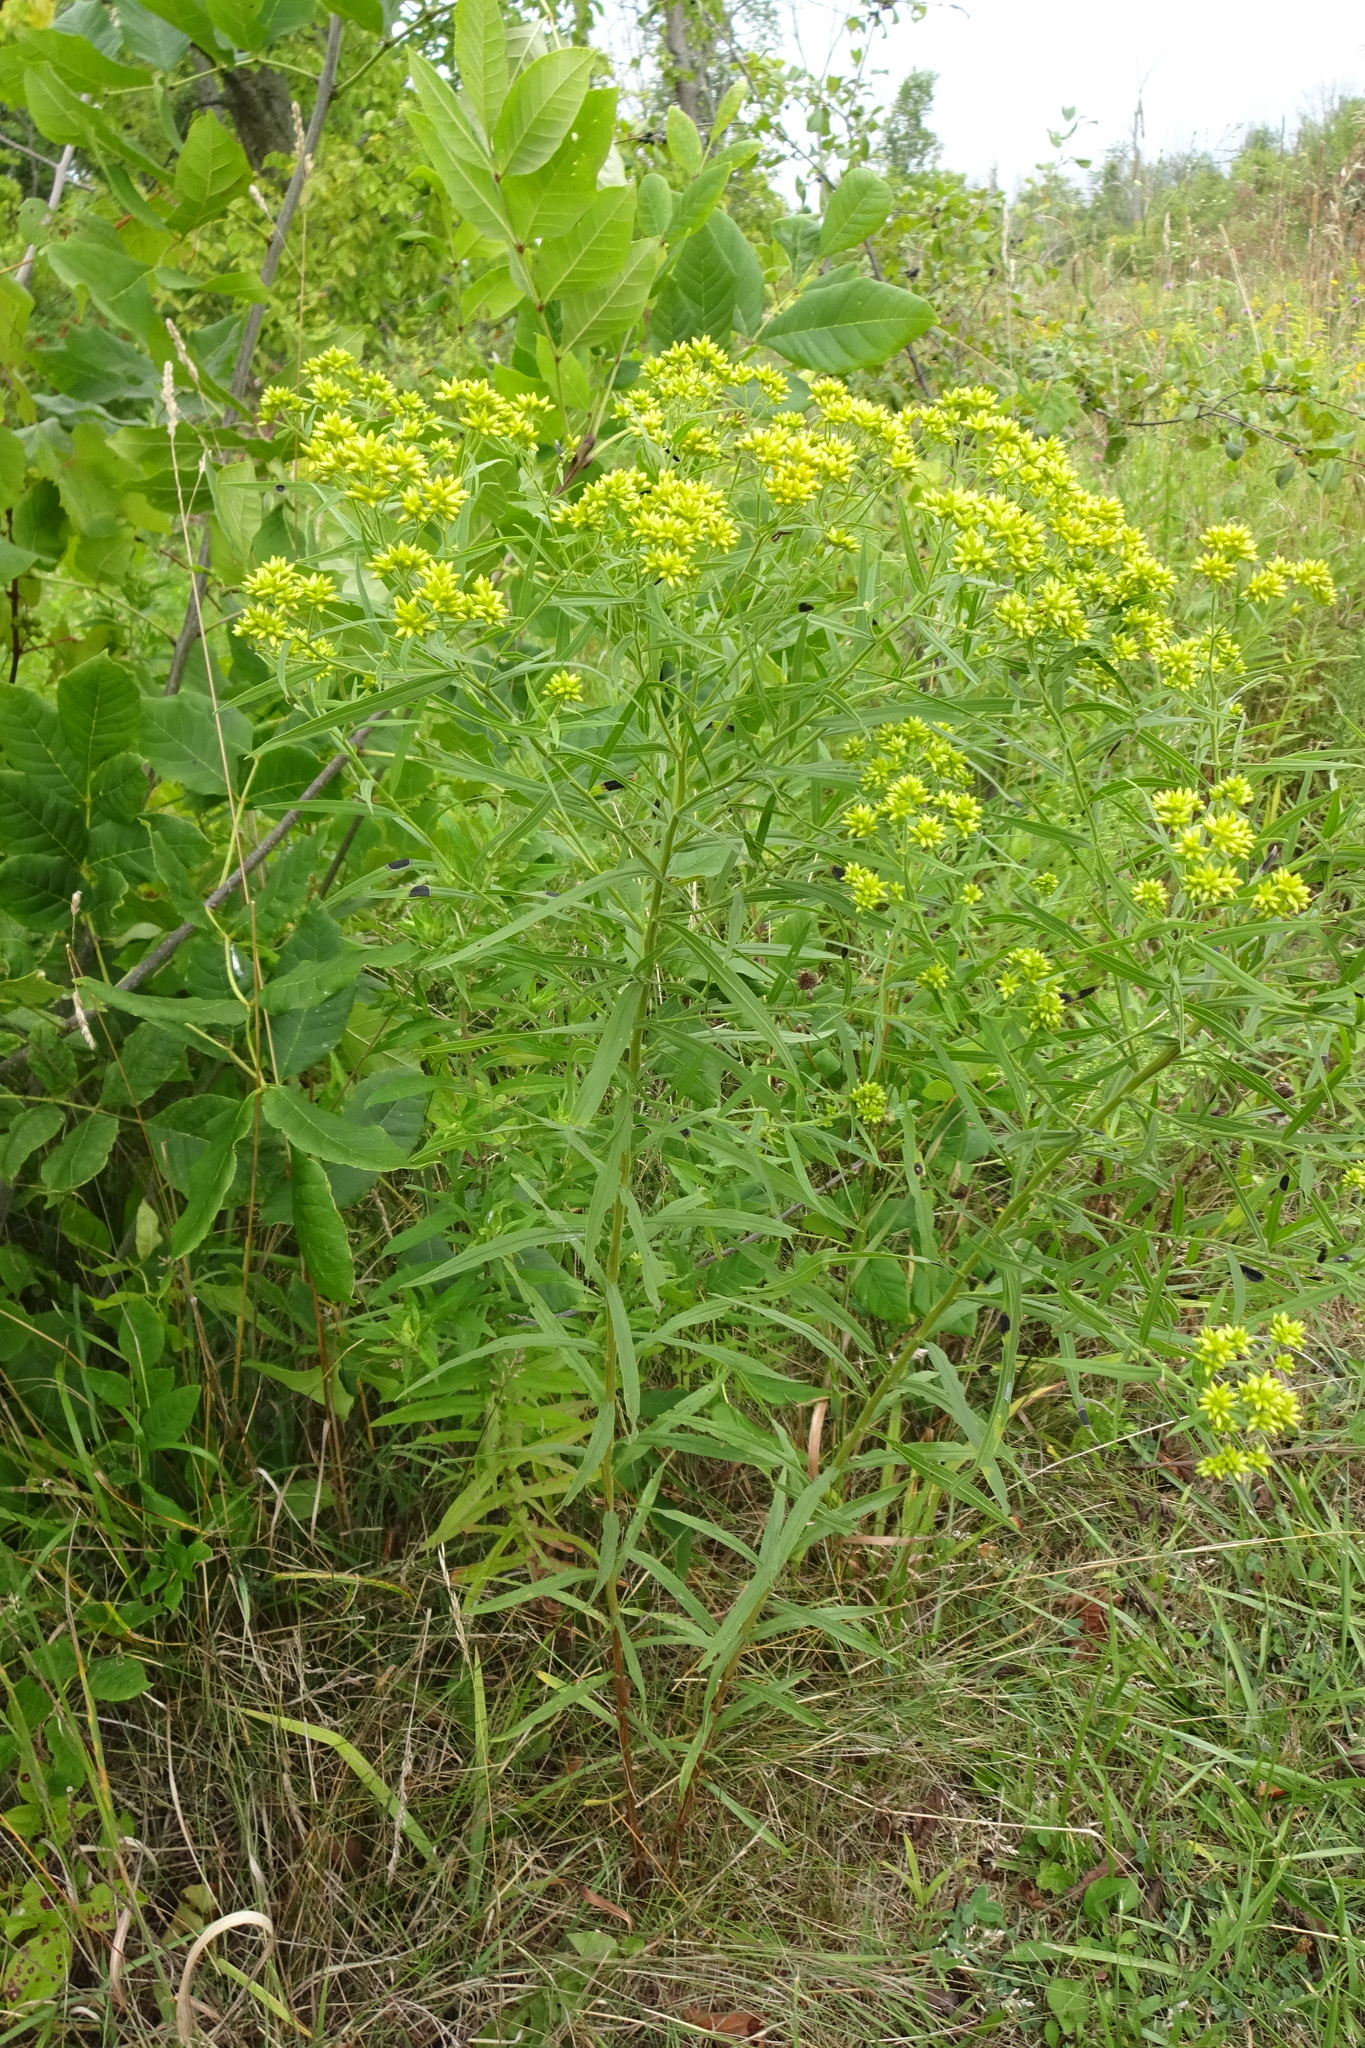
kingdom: Plantae
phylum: Tracheophyta
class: Magnoliopsida
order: Asterales
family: Asteraceae
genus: Euthamia
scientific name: Euthamia graminifolia
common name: Common goldentop
